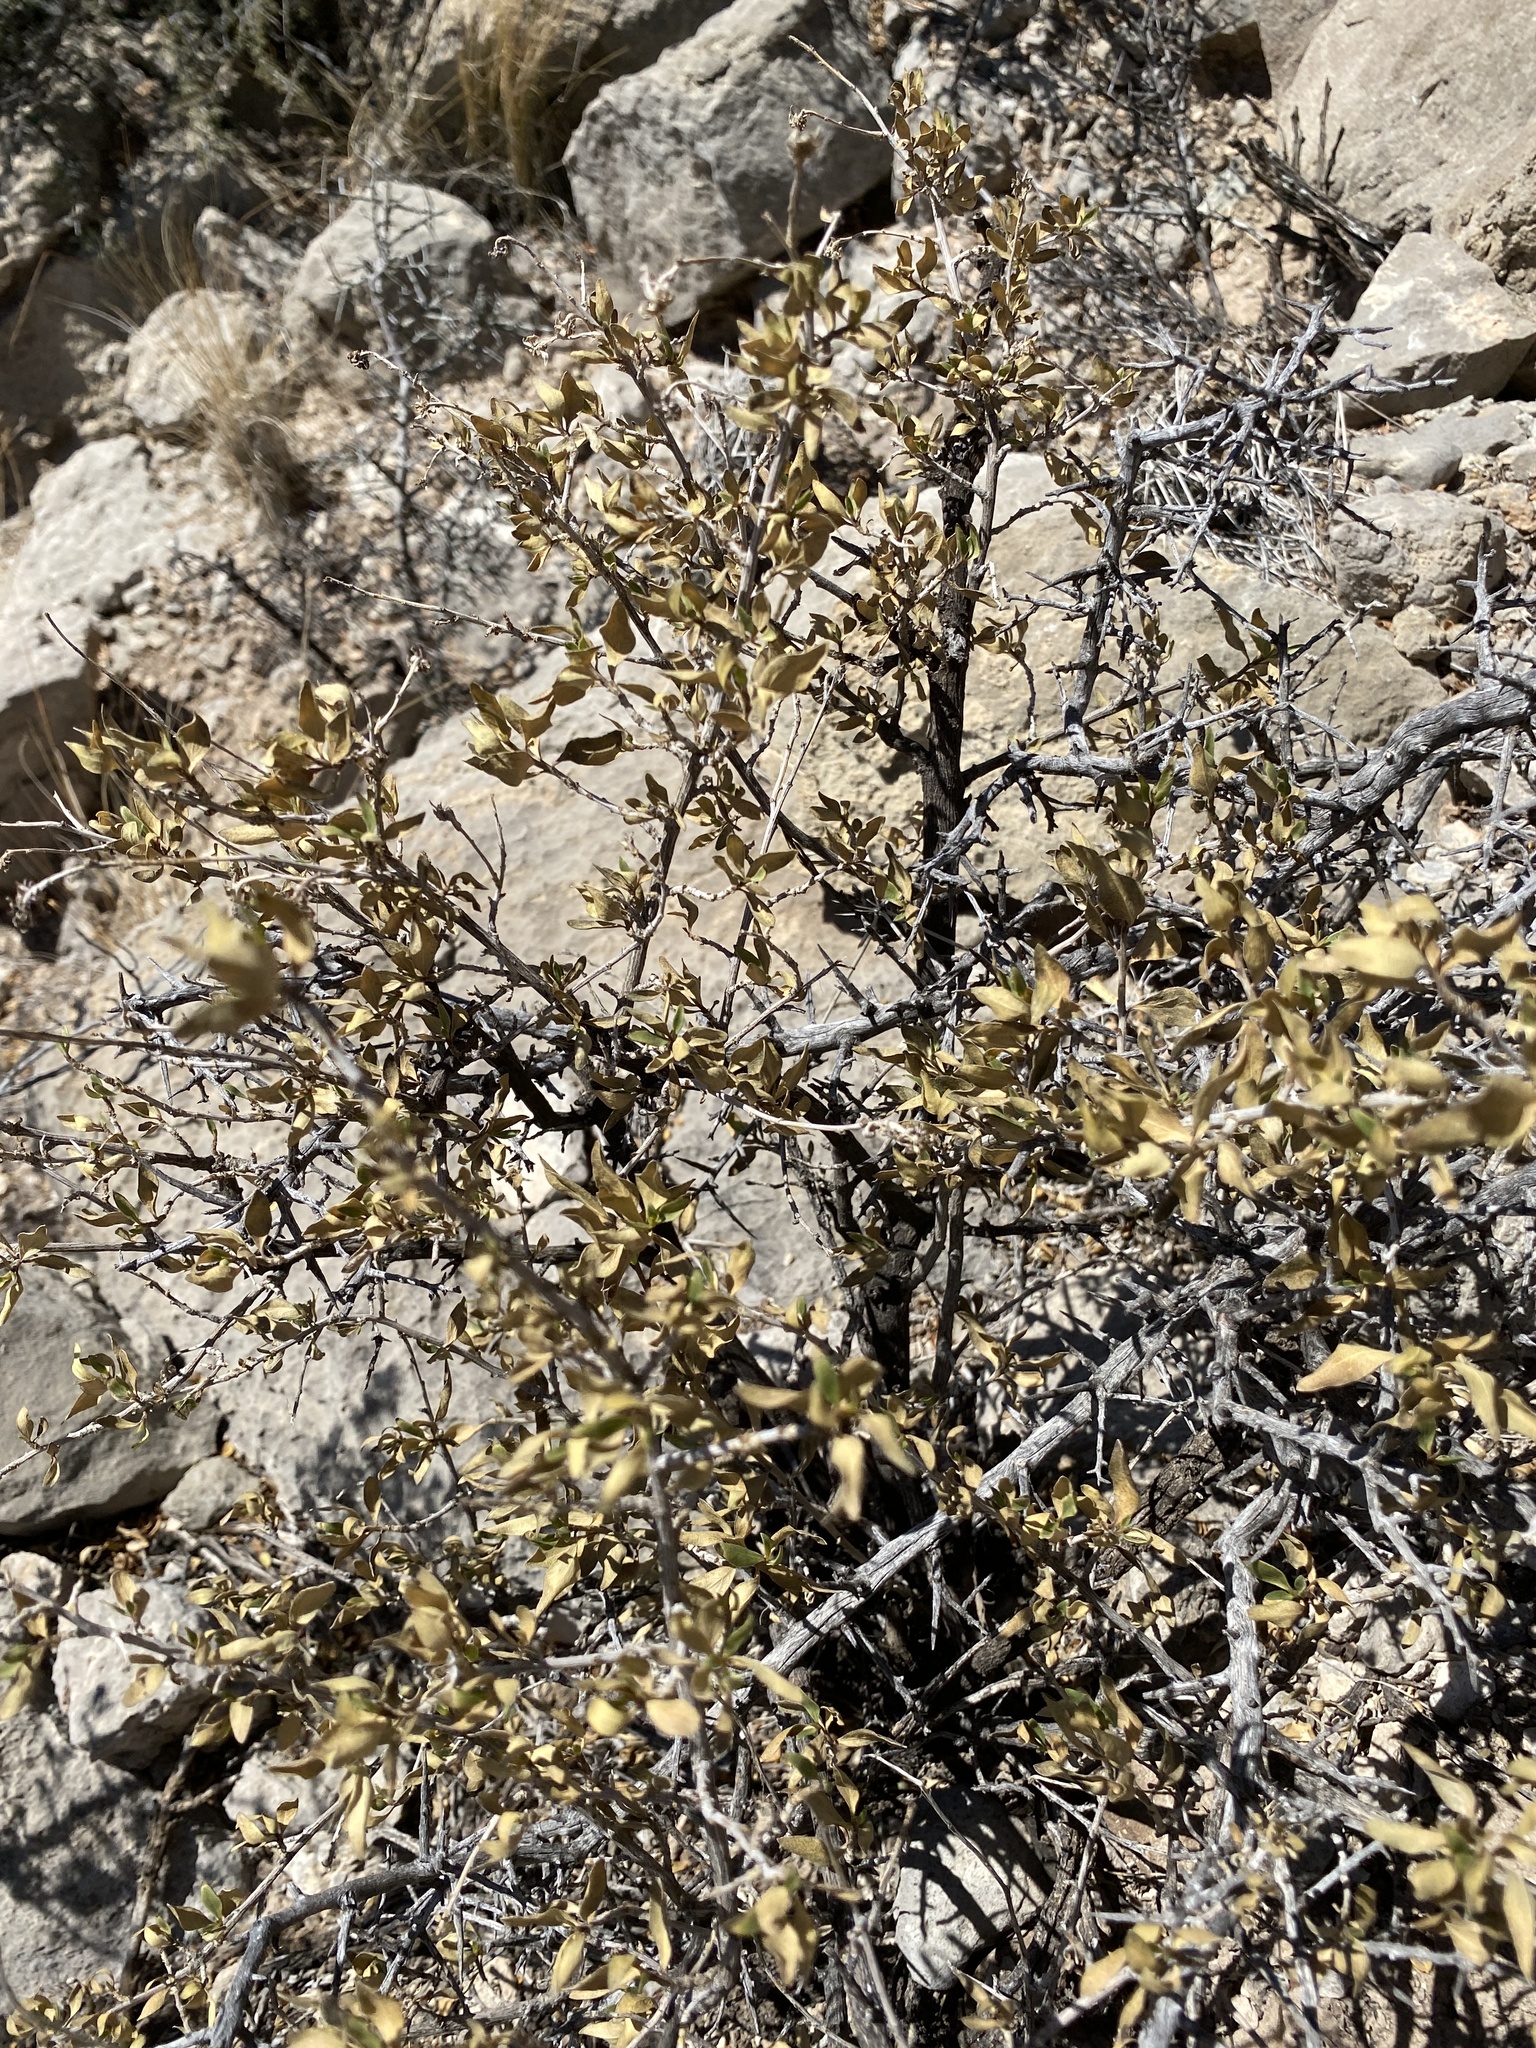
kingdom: Plantae
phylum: Tracheophyta
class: Magnoliopsida
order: Asterales
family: Asteraceae
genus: Flourensia
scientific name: Flourensia cernua
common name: Varnishbush
